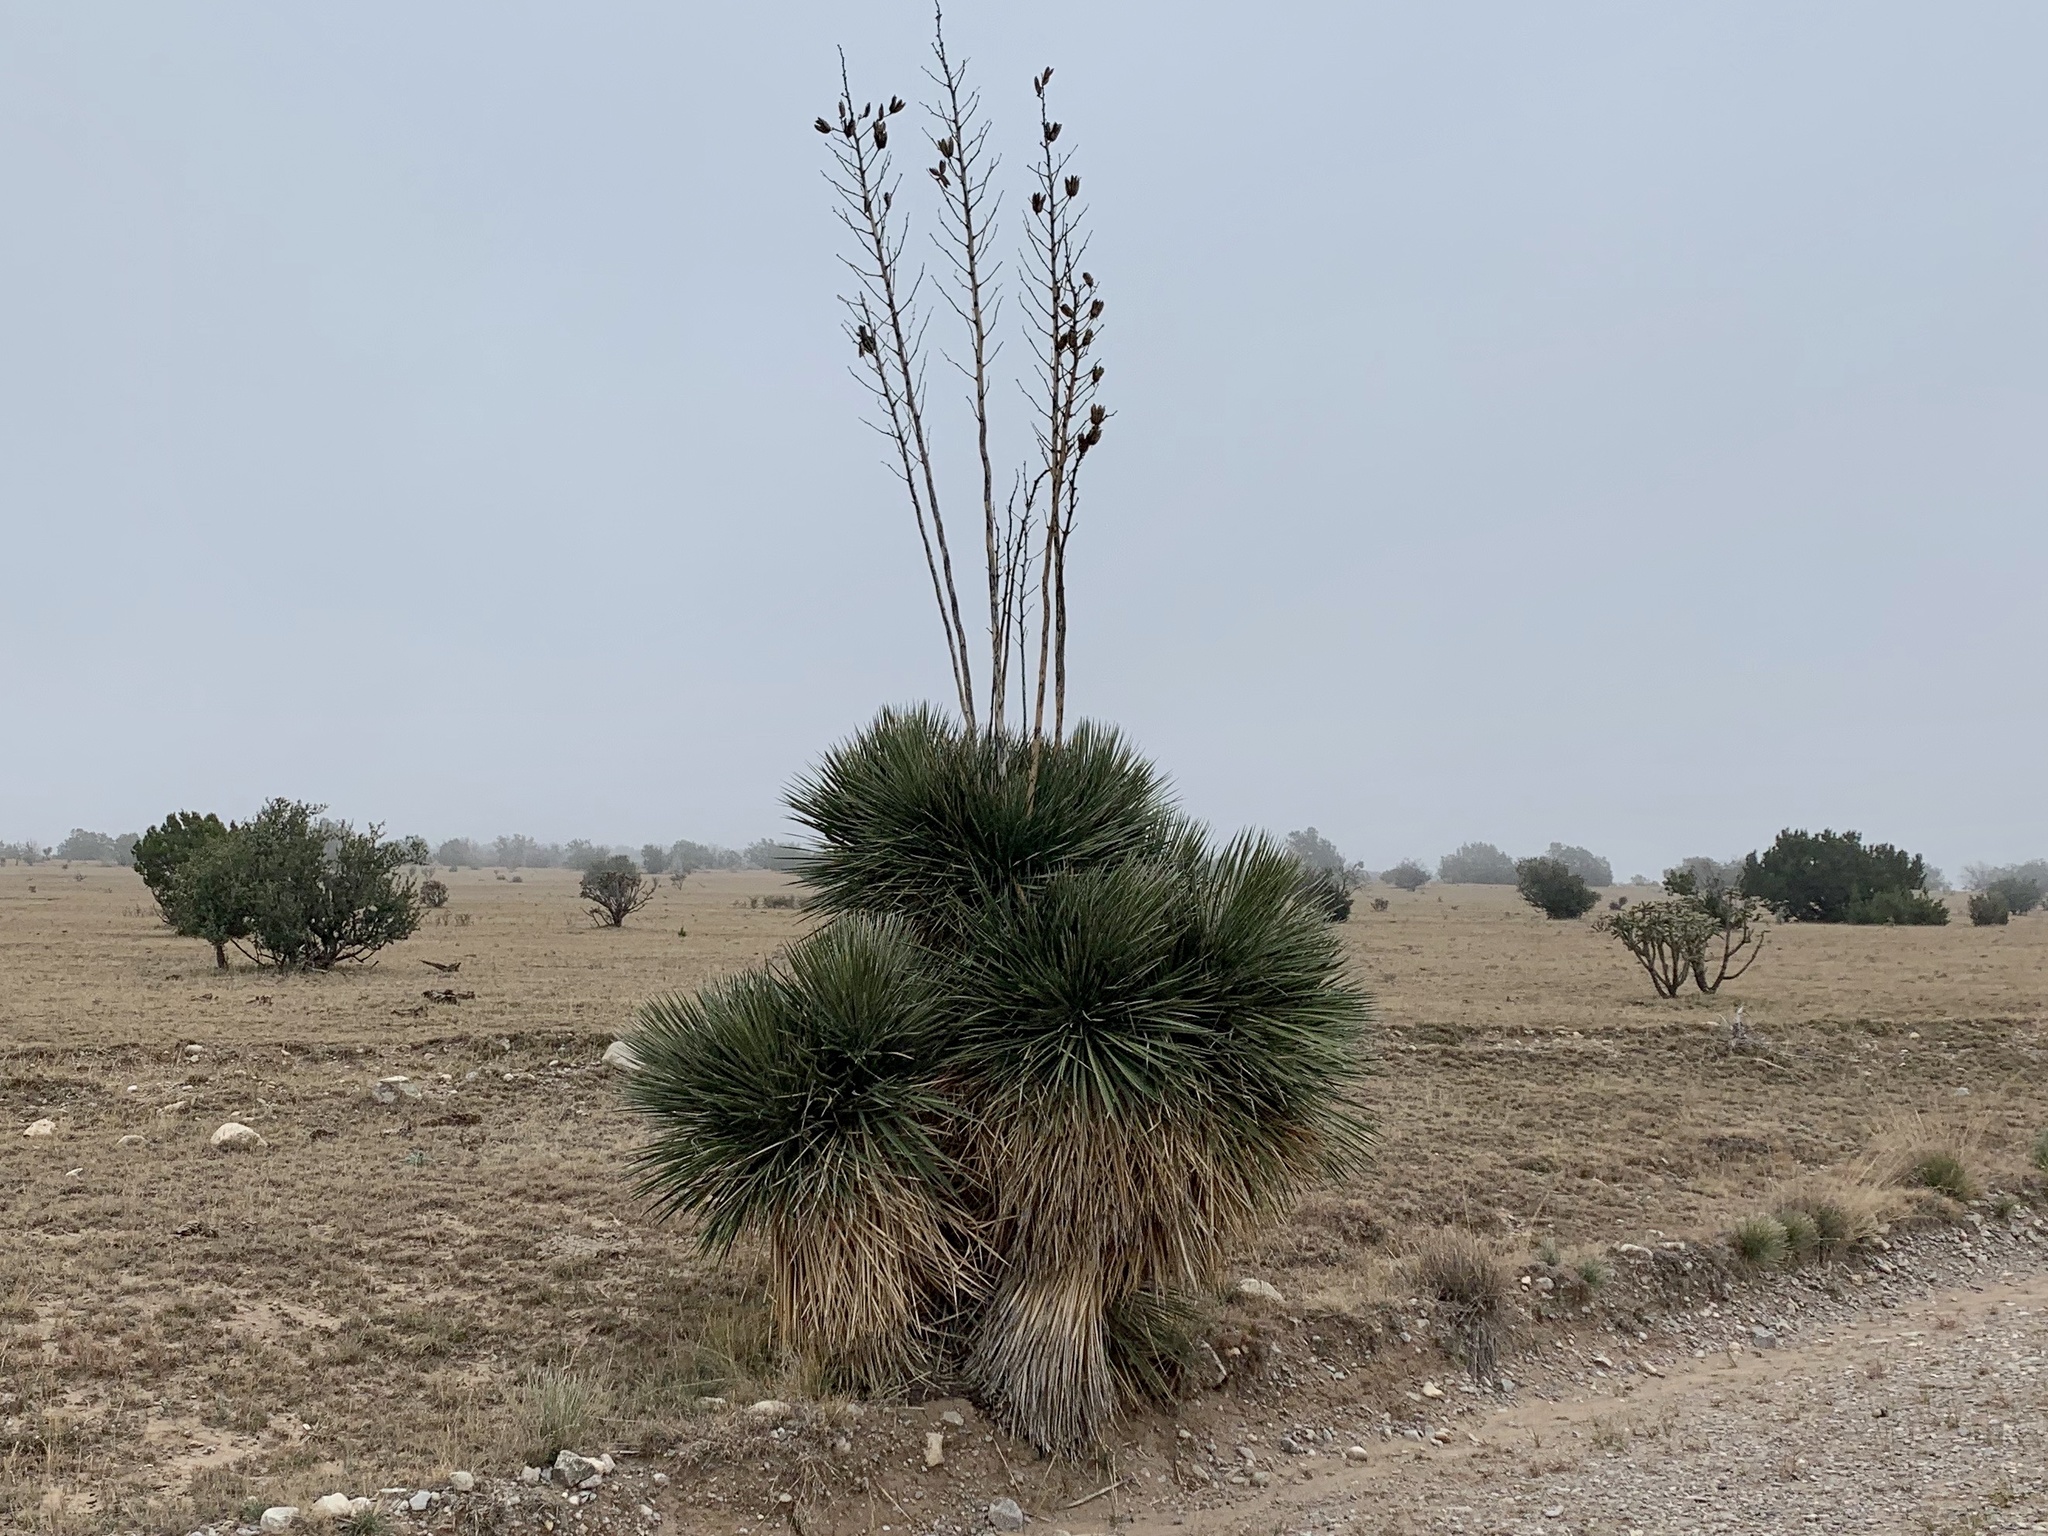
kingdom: Plantae
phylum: Tracheophyta
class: Liliopsida
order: Asparagales
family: Asparagaceae
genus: Yucca
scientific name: Yucca elata
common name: Palmella
